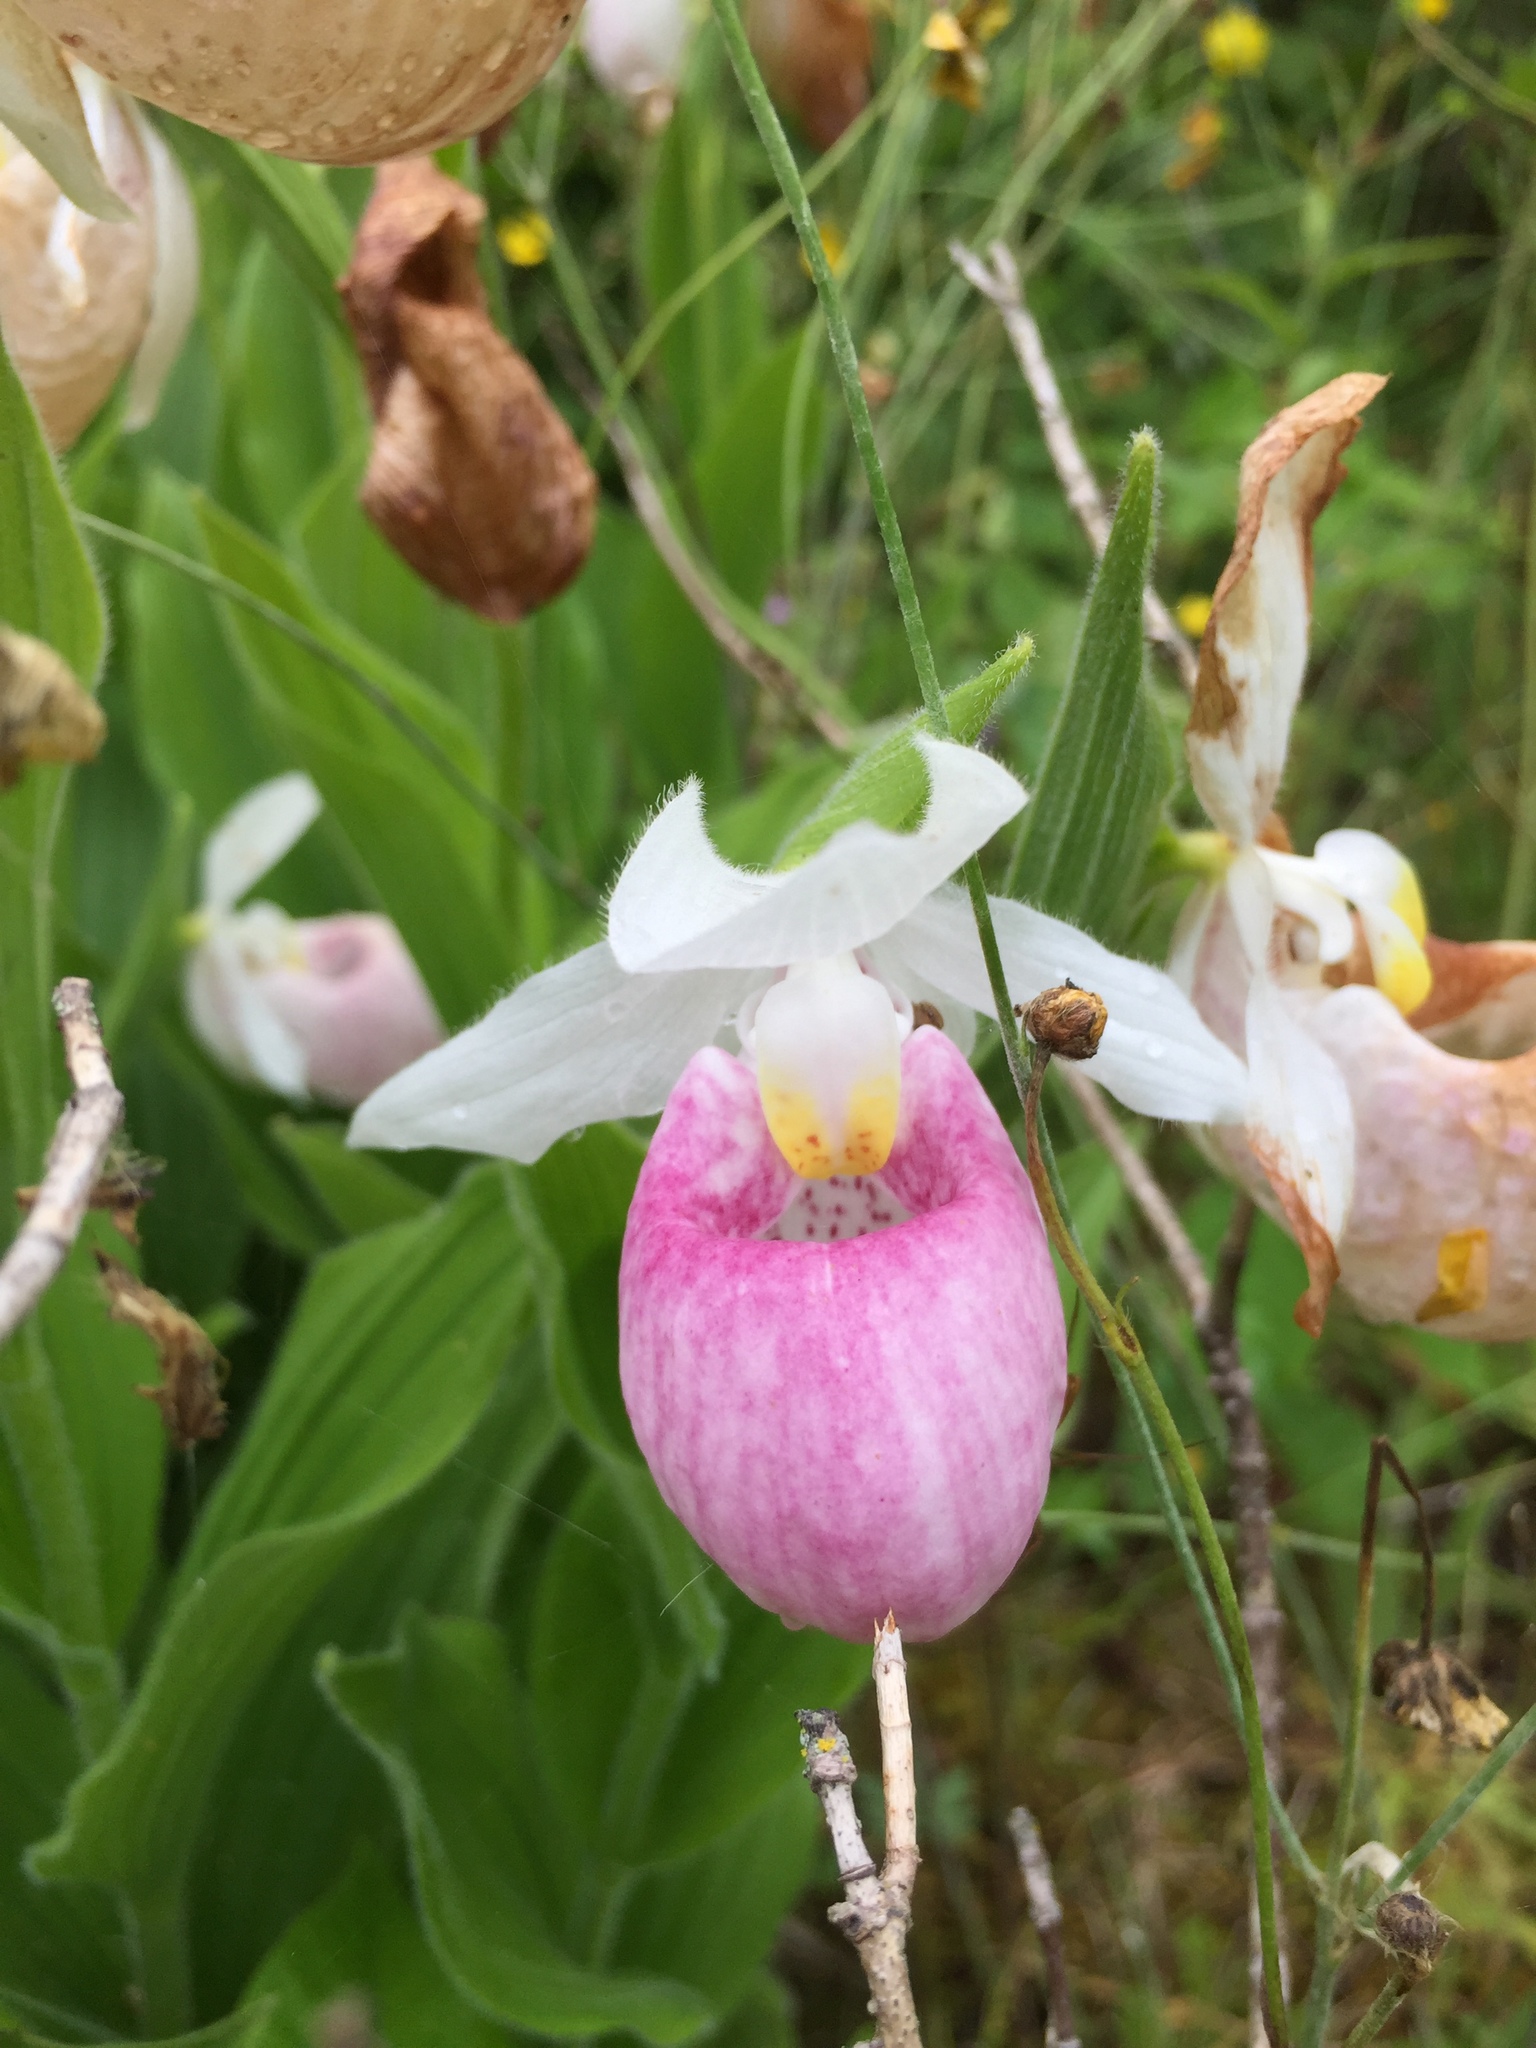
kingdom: Plantae
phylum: Tracheophyta
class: Liliopsida
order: Asparagales
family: Orchidaceae
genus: Cypripedium
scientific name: Cypripedium reginae
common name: Queen lady's-slipper
